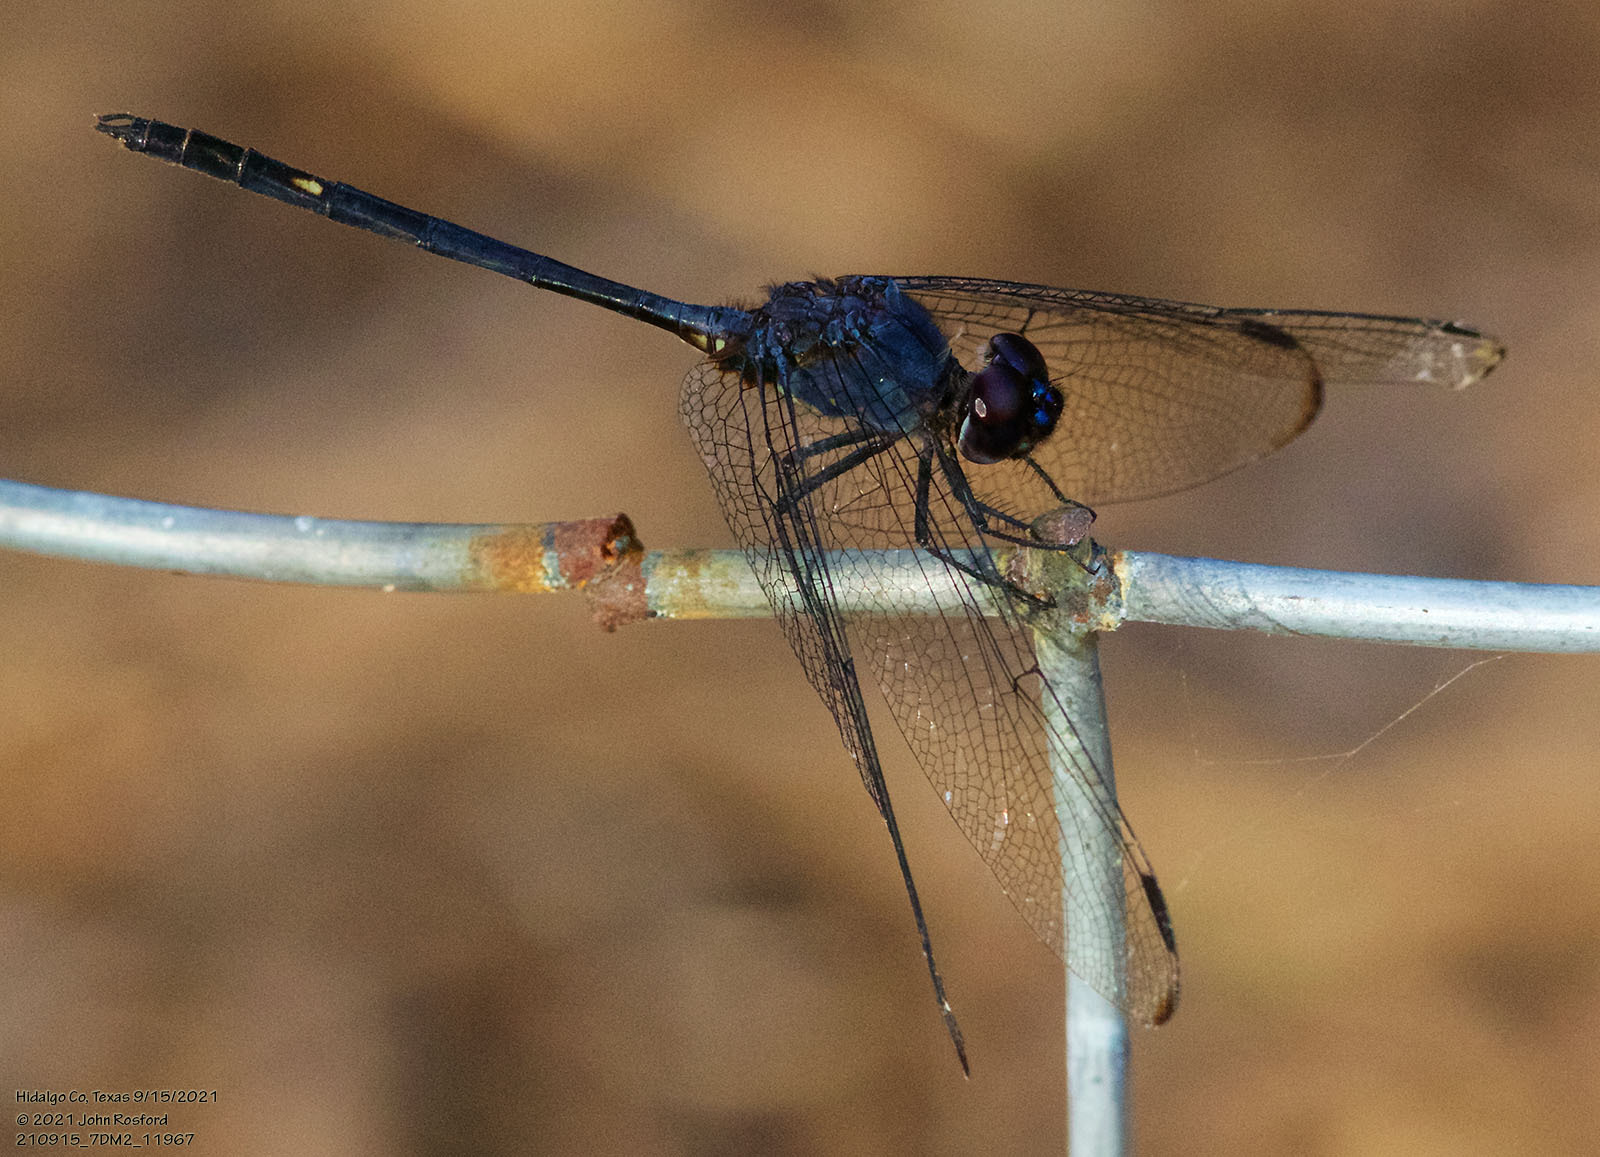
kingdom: Animalia
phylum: Arthropoda
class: Insecta
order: Odonata
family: Libellulidae
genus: Dythemis
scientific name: Dythemis nigrescens
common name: Black setwing
